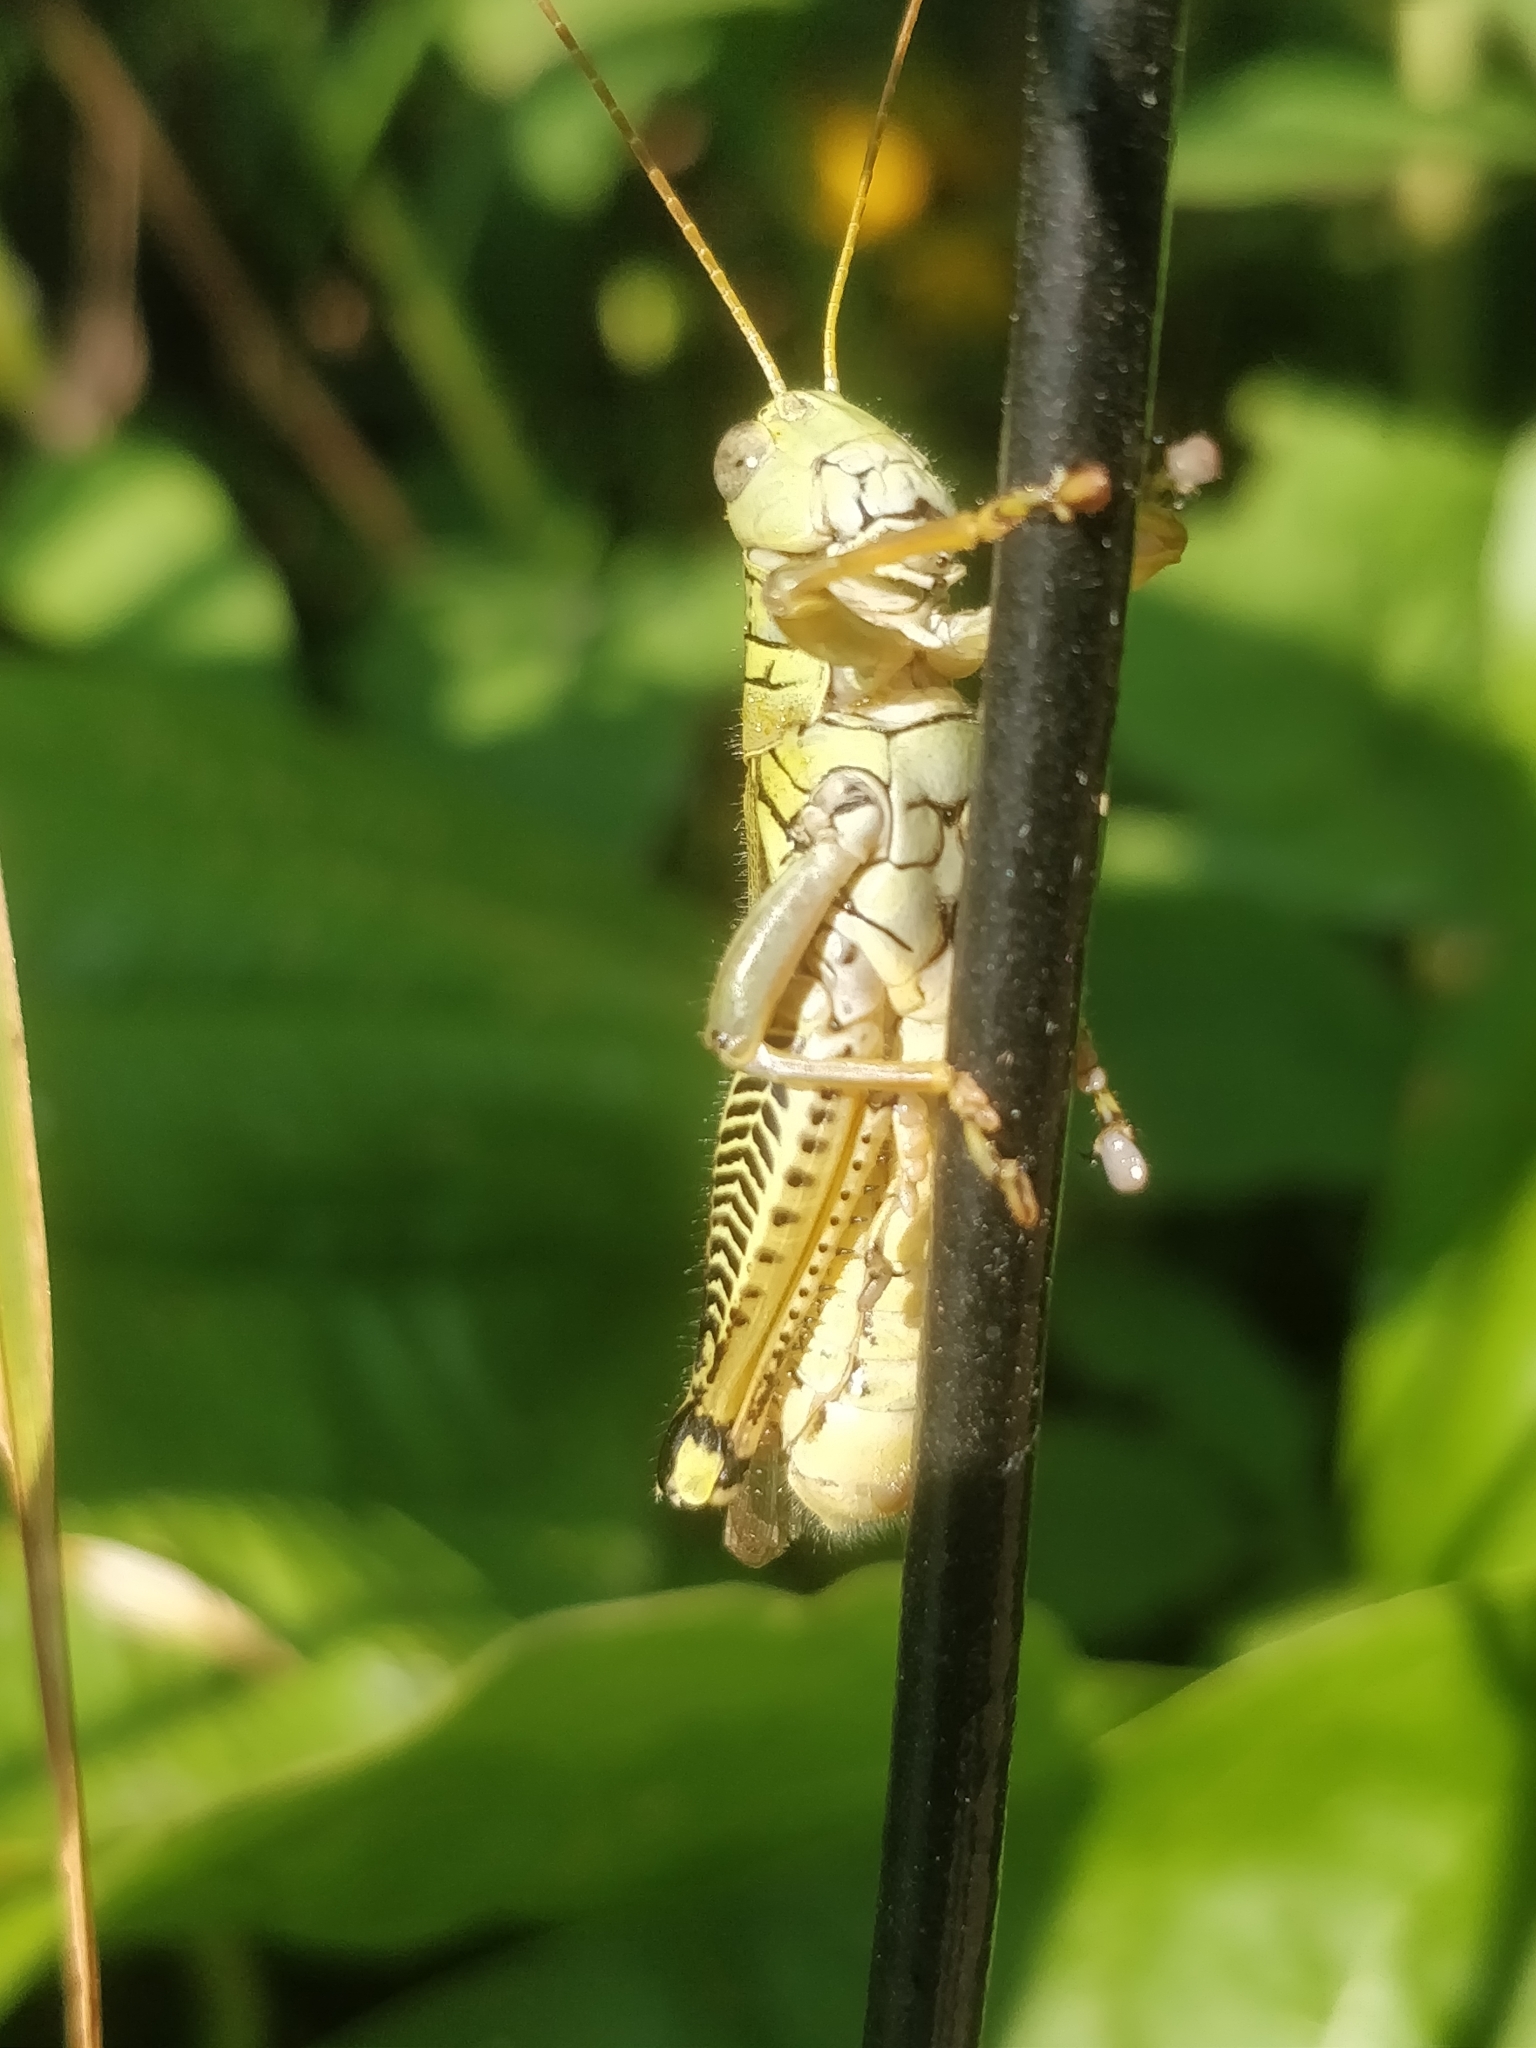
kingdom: Animalia
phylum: Arthropoda
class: Insecta
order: Orthoptera
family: Acrididae
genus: Melanoplus
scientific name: Melanoplus differentialis
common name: Differential grasshopper
